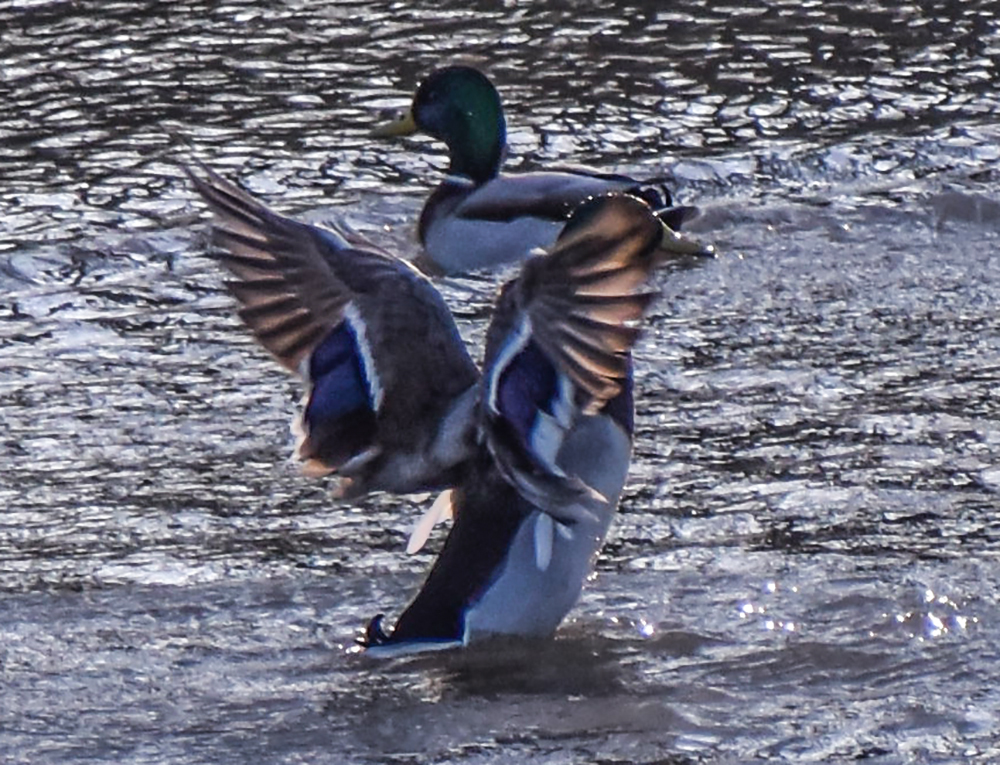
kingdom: Animalia
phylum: Chordata
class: Aves
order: Anseriformes
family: Anatidae
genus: Anas
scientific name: Anas platyrhynchos
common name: Mallard
